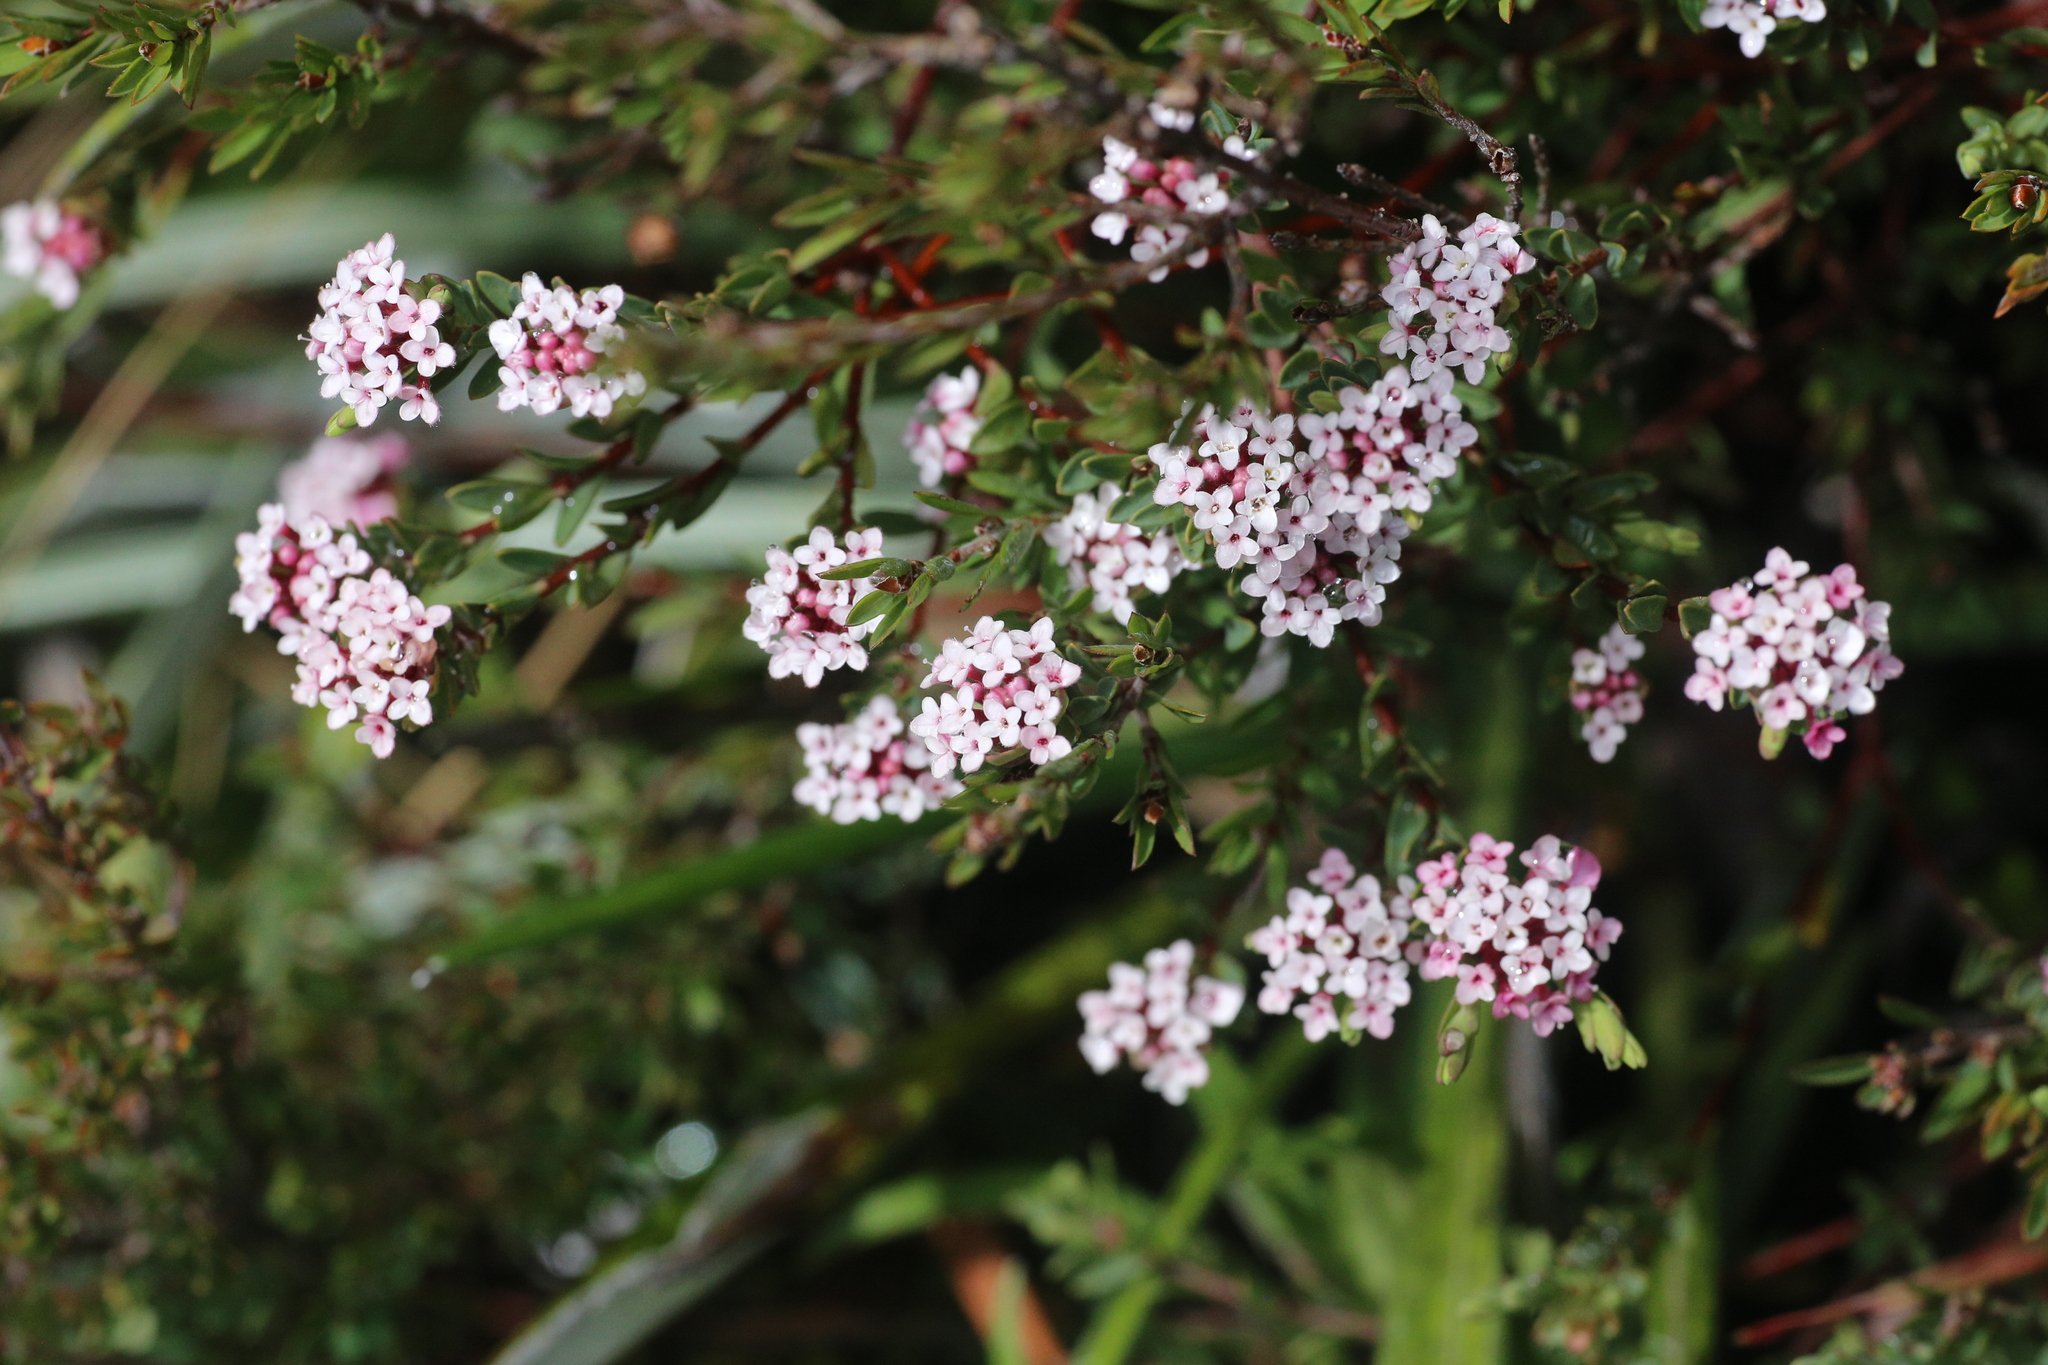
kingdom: Plantae
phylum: Tracheophyta
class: Magnoliopsida
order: Malvales
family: Thymelaeaceae
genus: Pimelea
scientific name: Pimelea alpina
